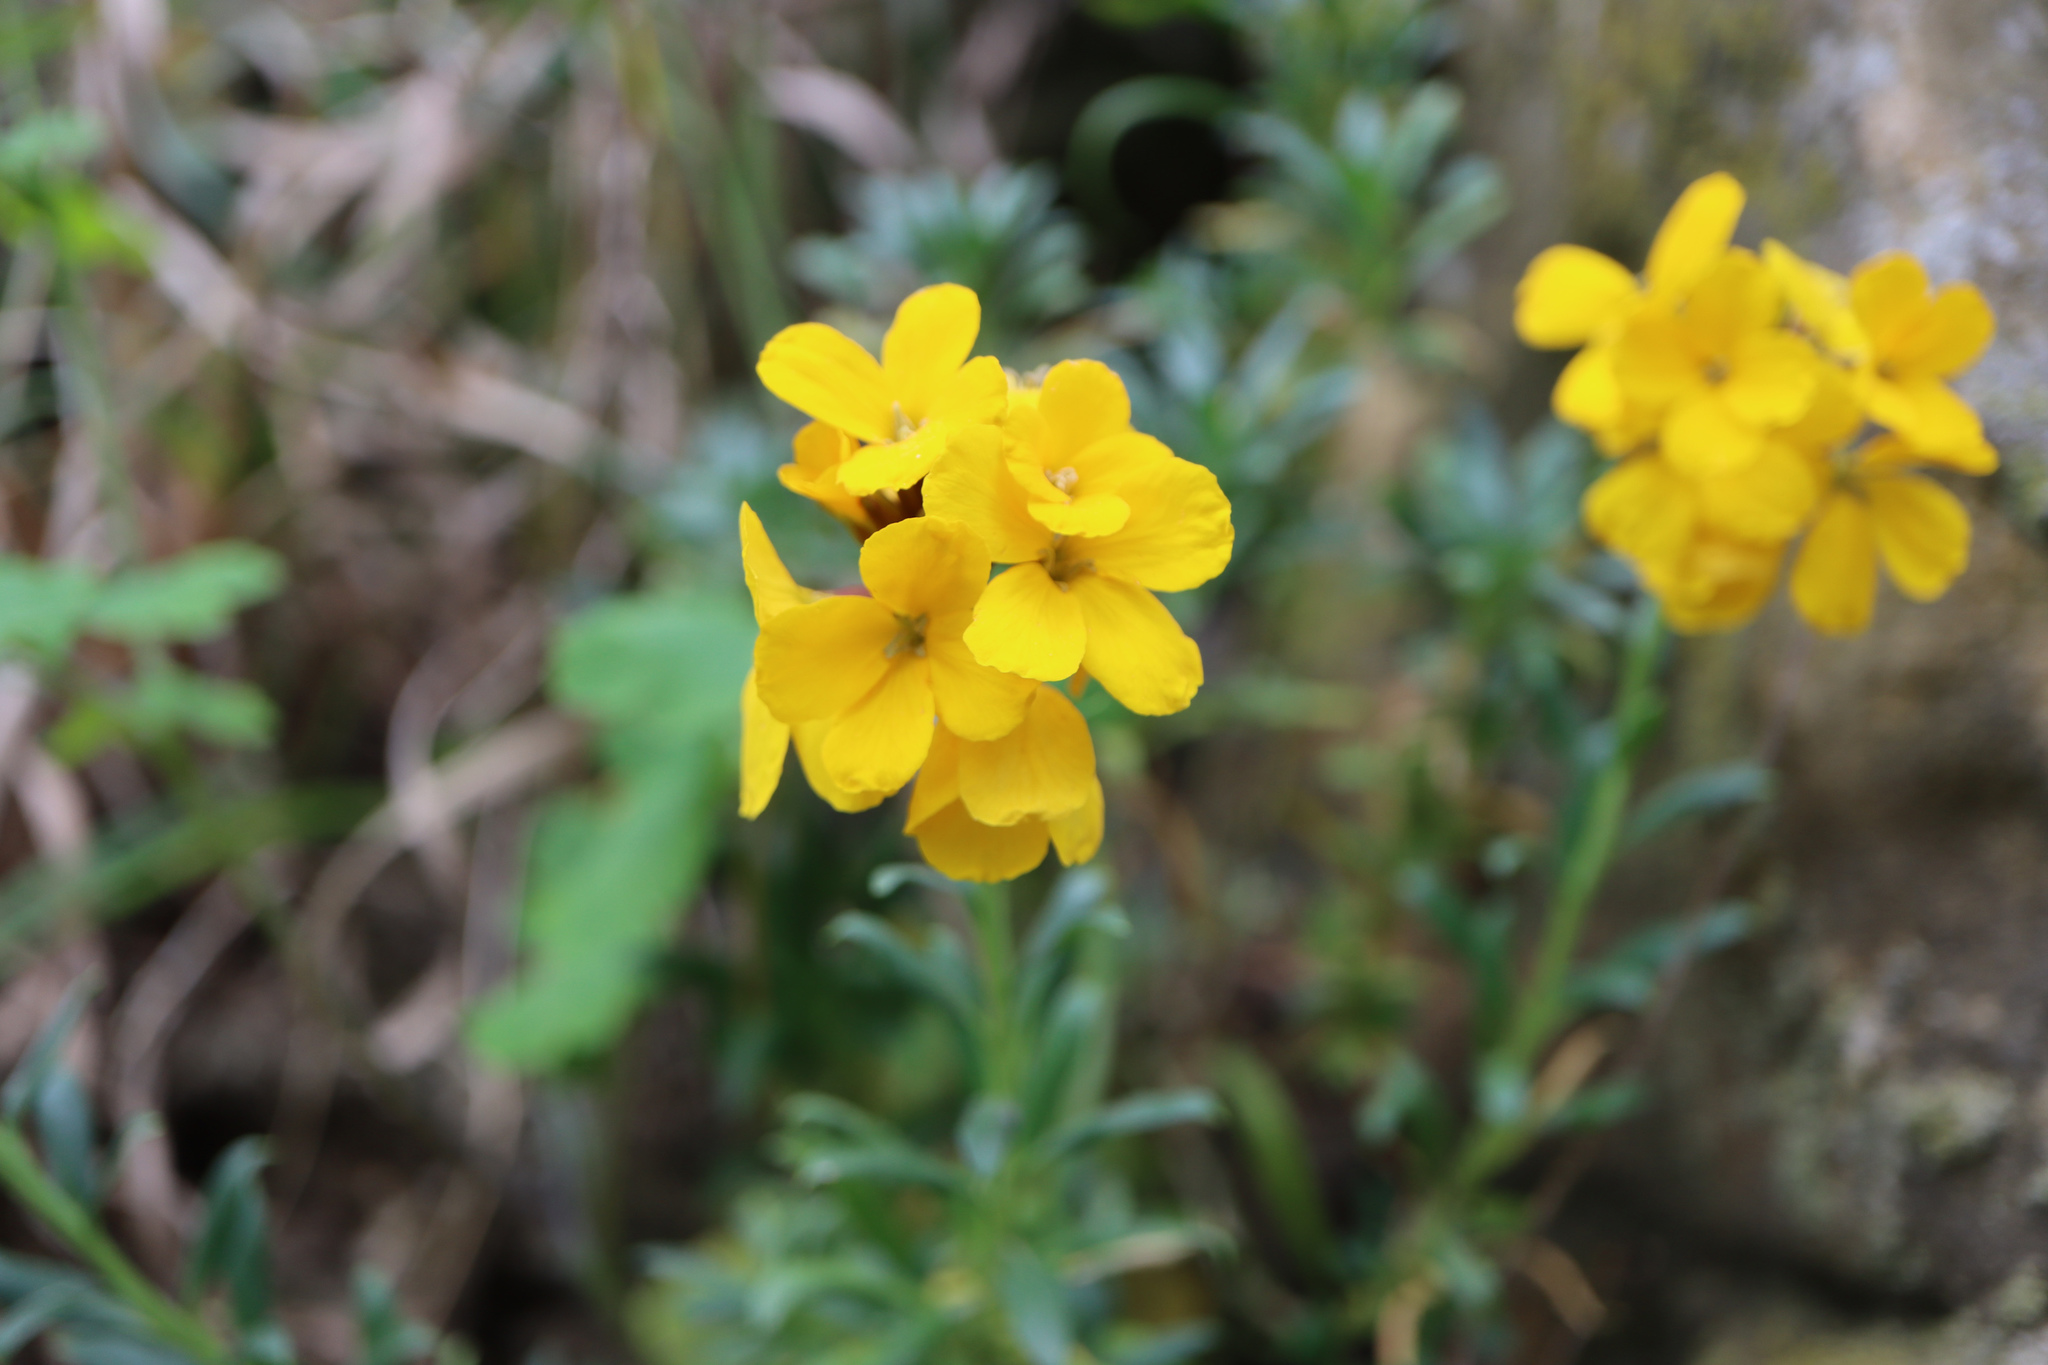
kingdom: Plantae
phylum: Tracheophyta
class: Magnoliopsida
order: Brassicales
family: Brassicaceae
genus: Erysimum
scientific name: Erysimum cheiri
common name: Wallflower
